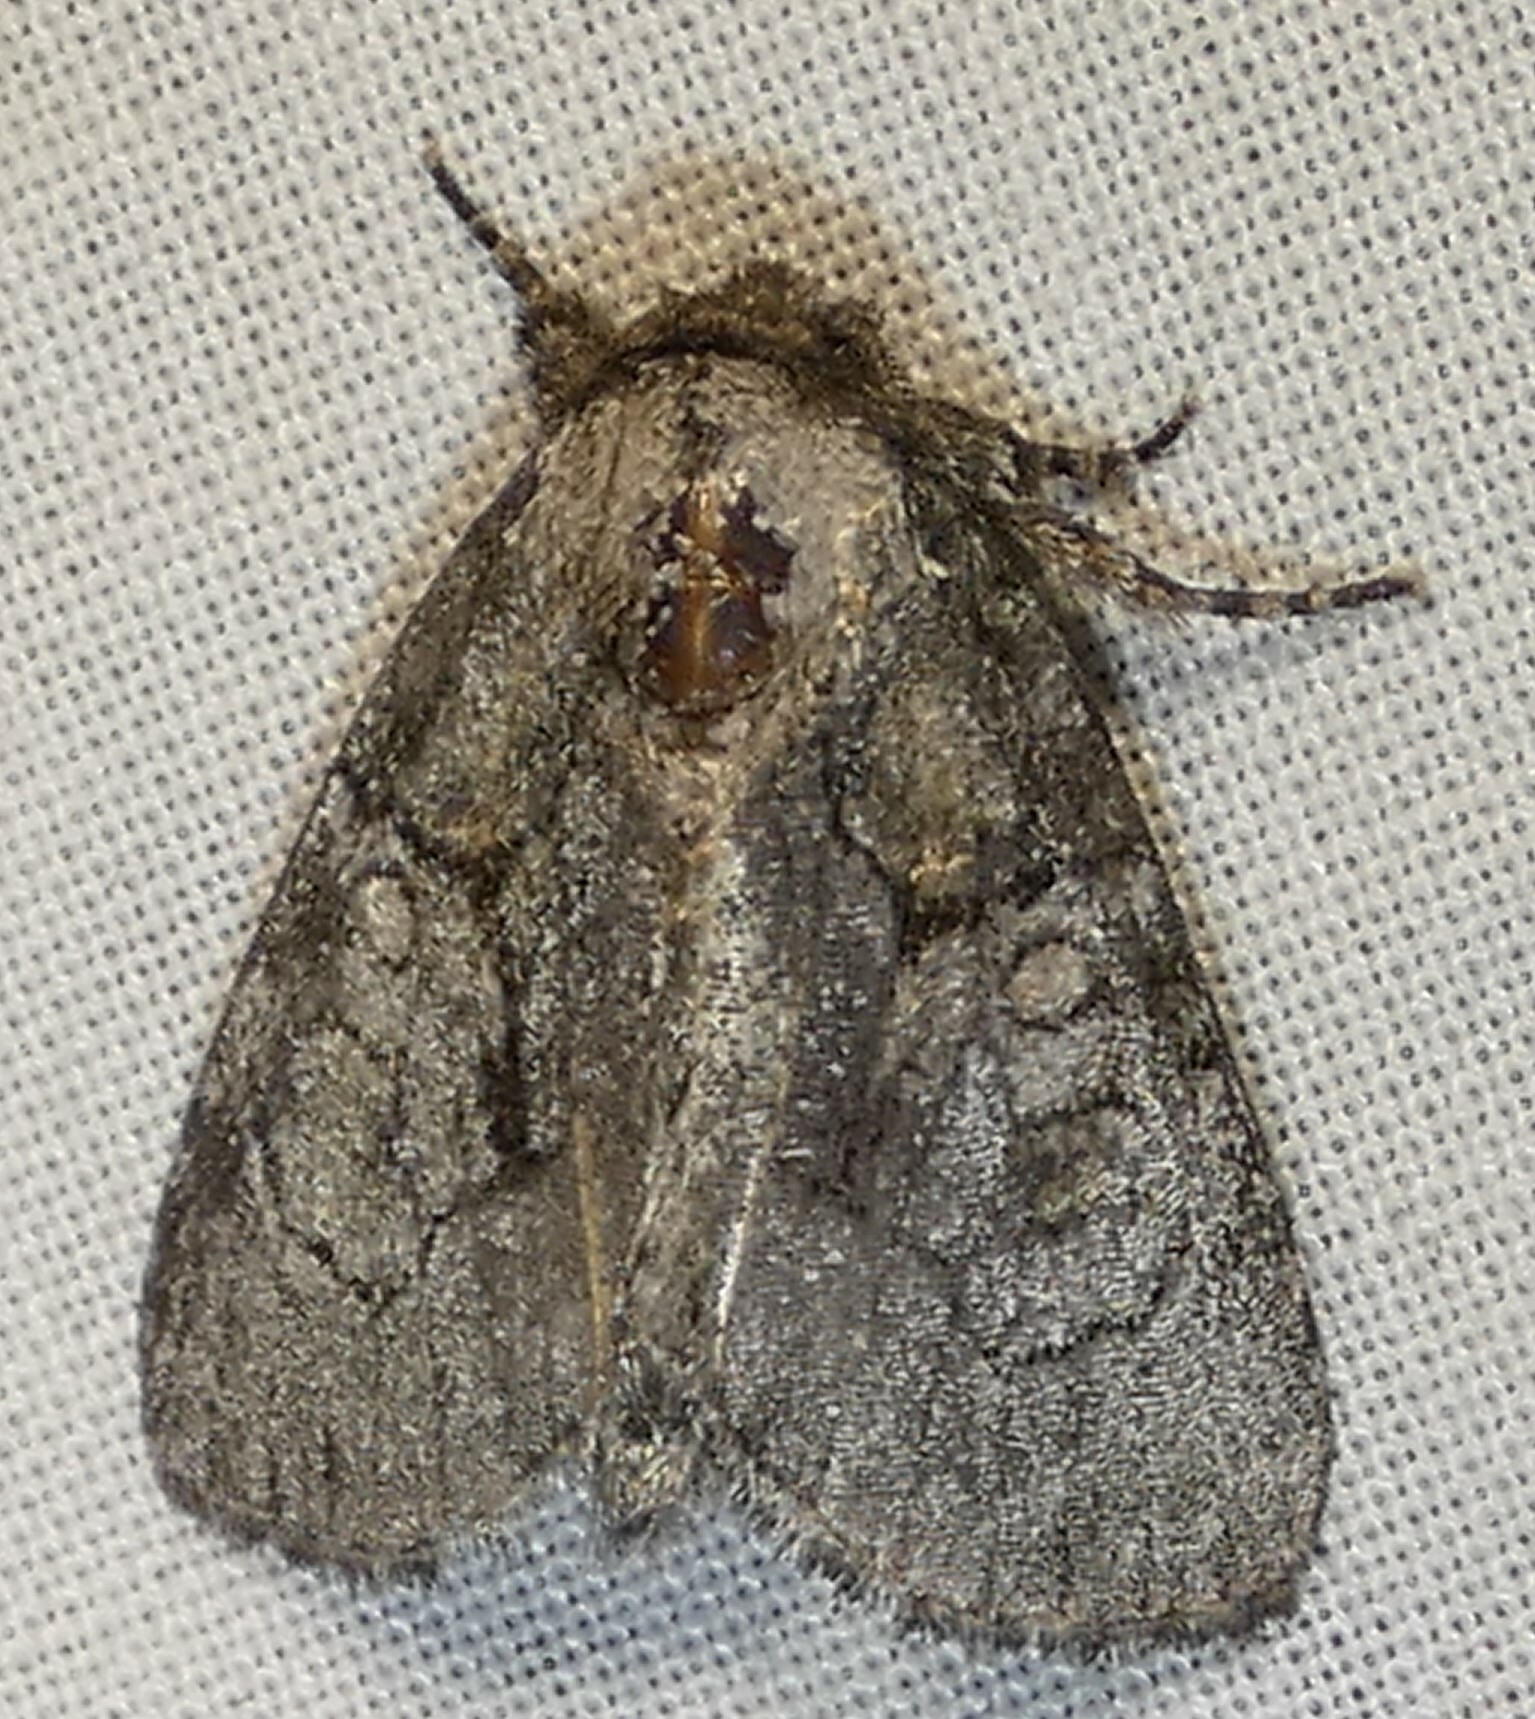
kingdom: Animalia
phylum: Arthropoda
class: Insecta
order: Lepidoptera
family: Noctuidae
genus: Raphia
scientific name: Raphia frater
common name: Brother
